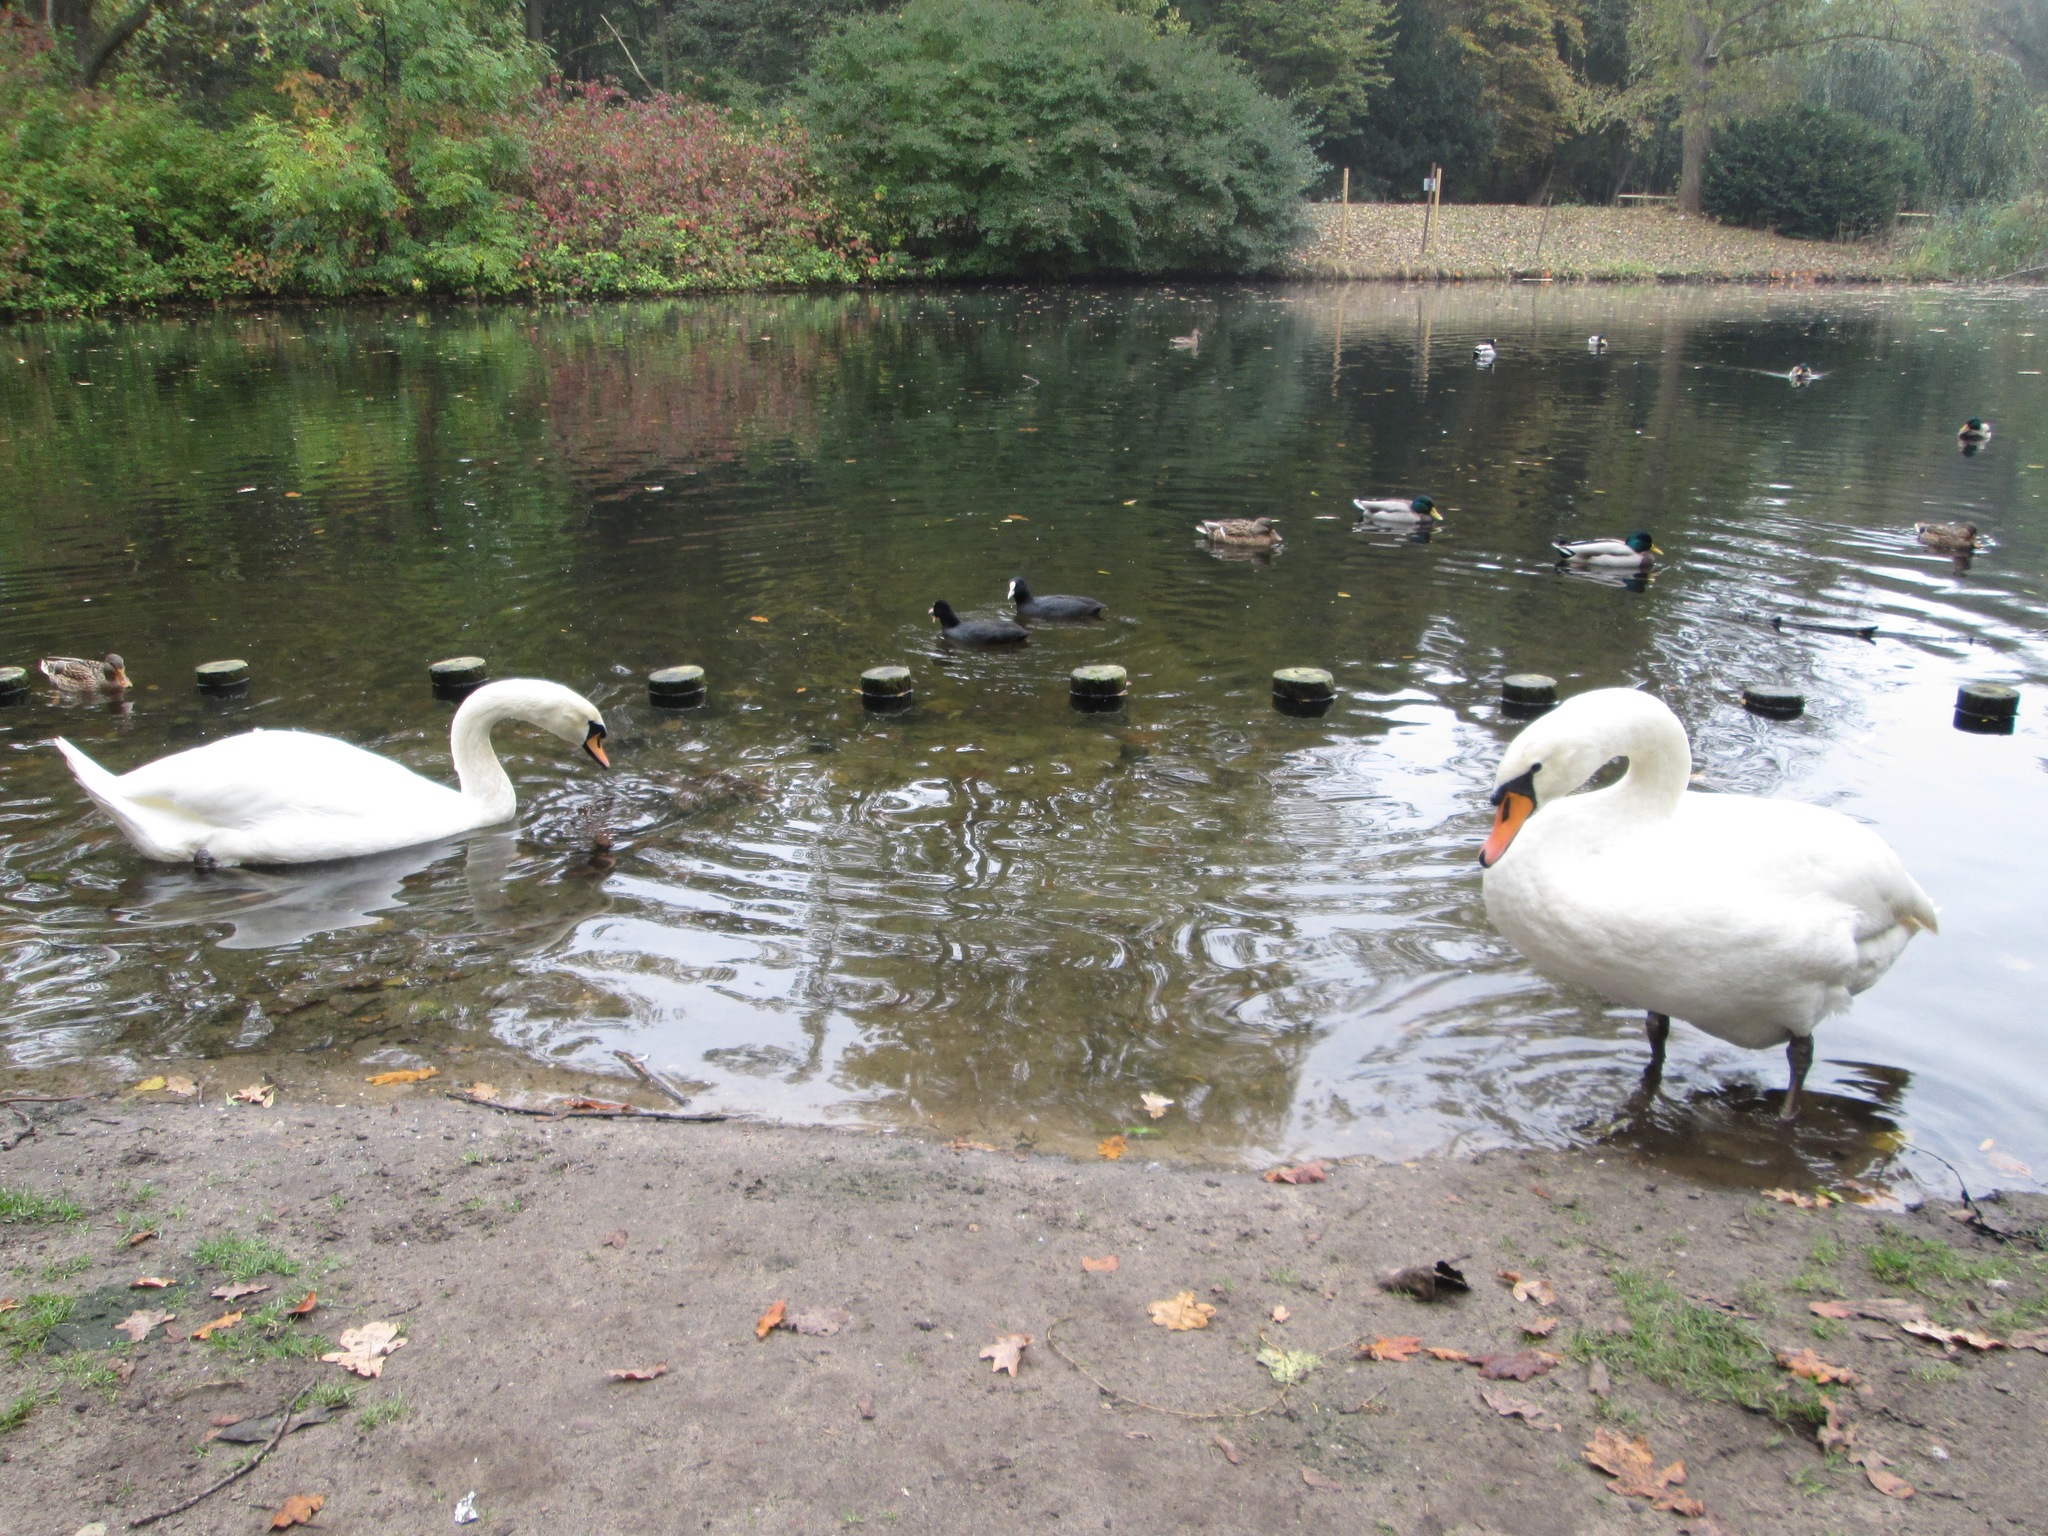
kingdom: Animalia
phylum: Chordata
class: Aves
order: Anseriformes
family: Anatidae
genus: Cygnus
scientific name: Cygnus olor
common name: Mute swan
